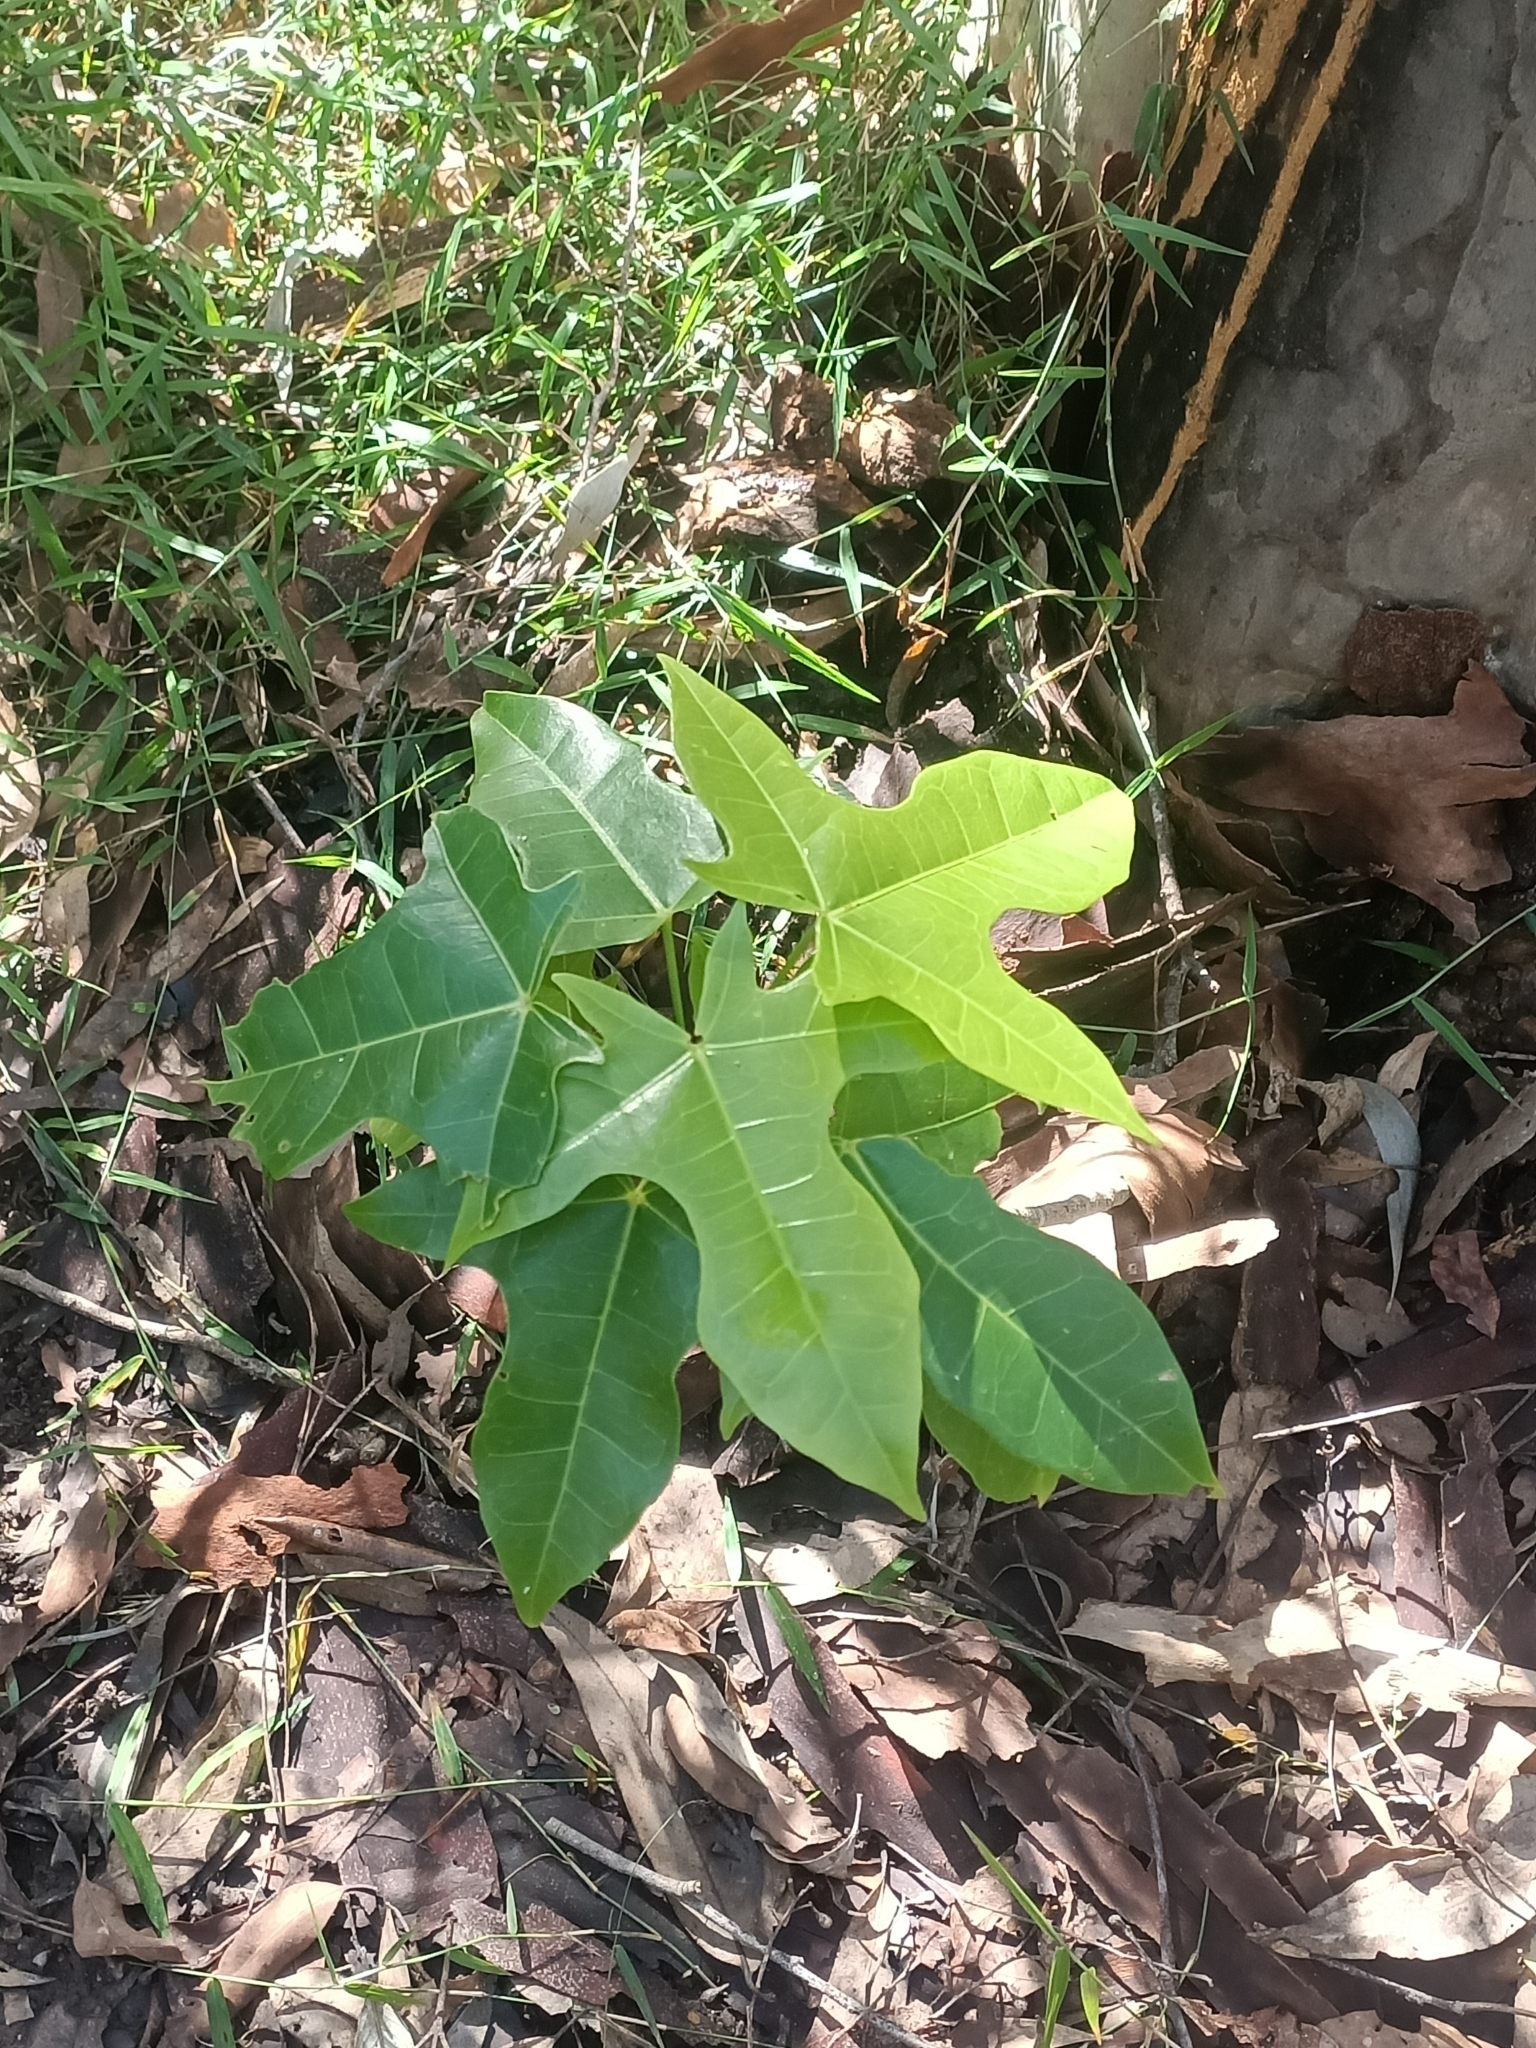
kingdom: Plantae
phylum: Tracheophyta
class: Magnoliopsida
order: Malvales
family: Malvaceae
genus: Brachychiton
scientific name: Brachychiton acerifolius
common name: Illawarra flame tree
